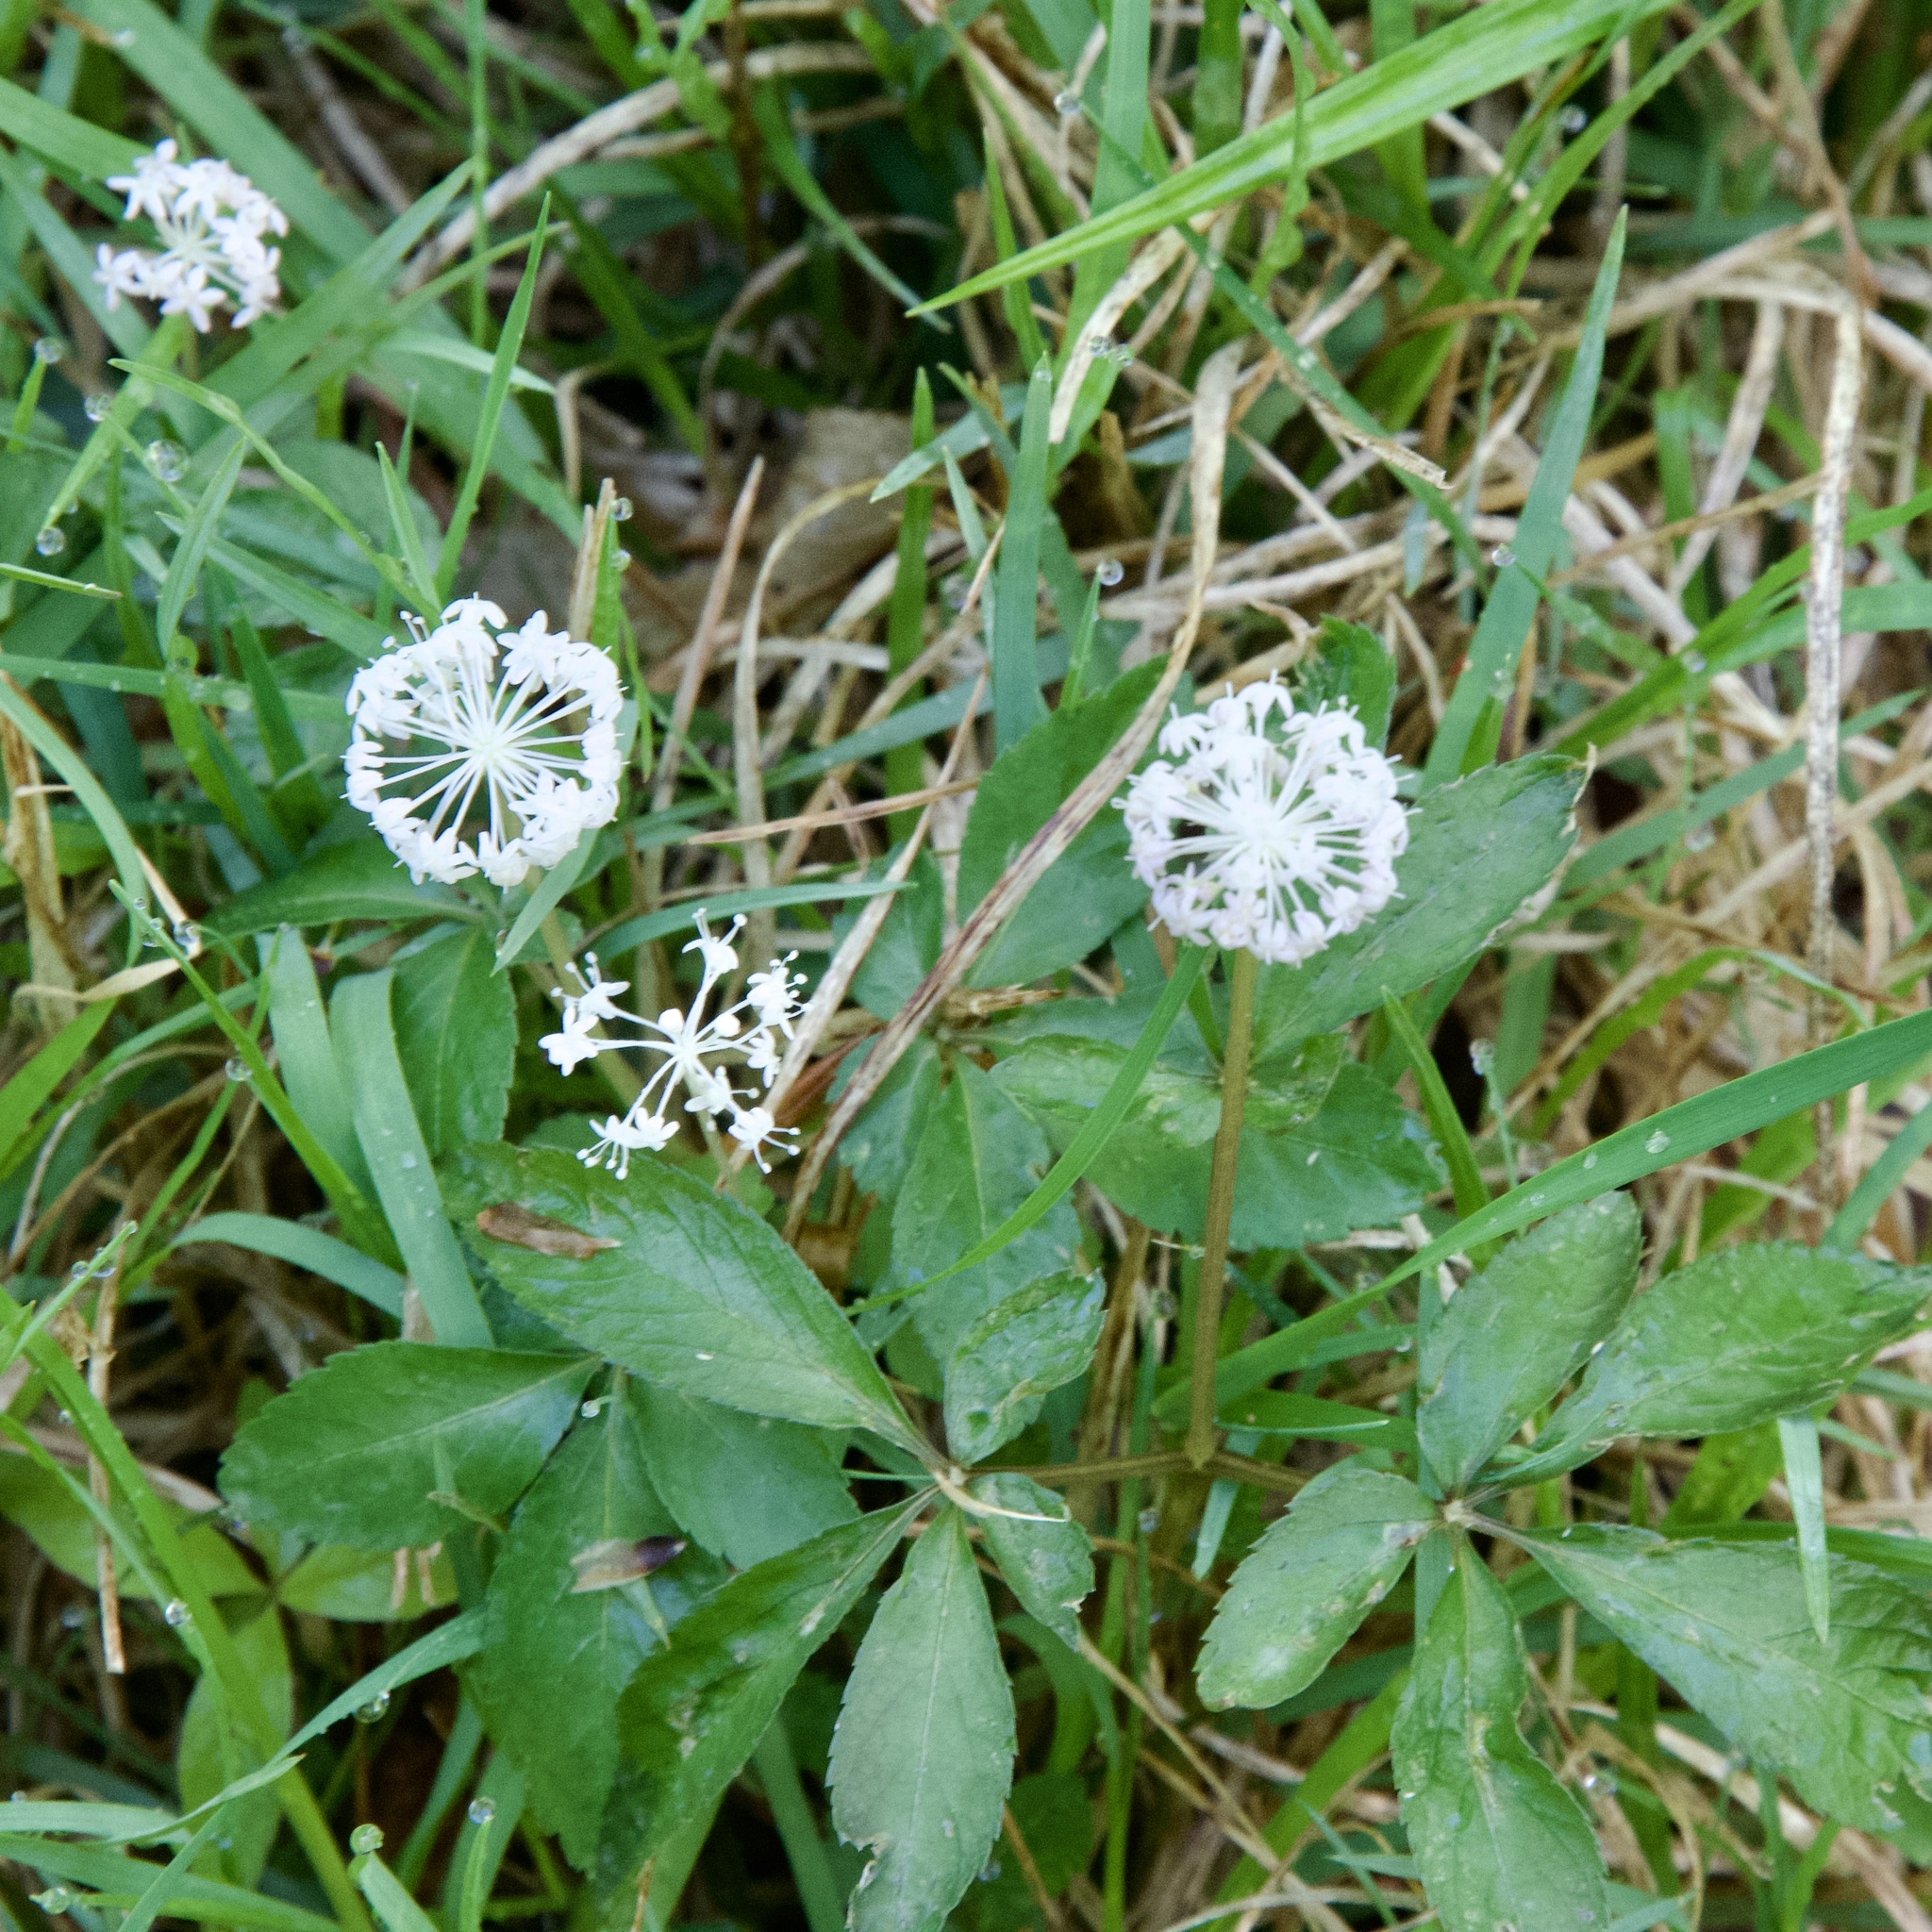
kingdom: Plantae
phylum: Tracheophyta
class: Magnoliopsida
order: Apiales
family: Araliaceae
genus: Panax
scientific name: Panax trifolius
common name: Dwarf ginseng
